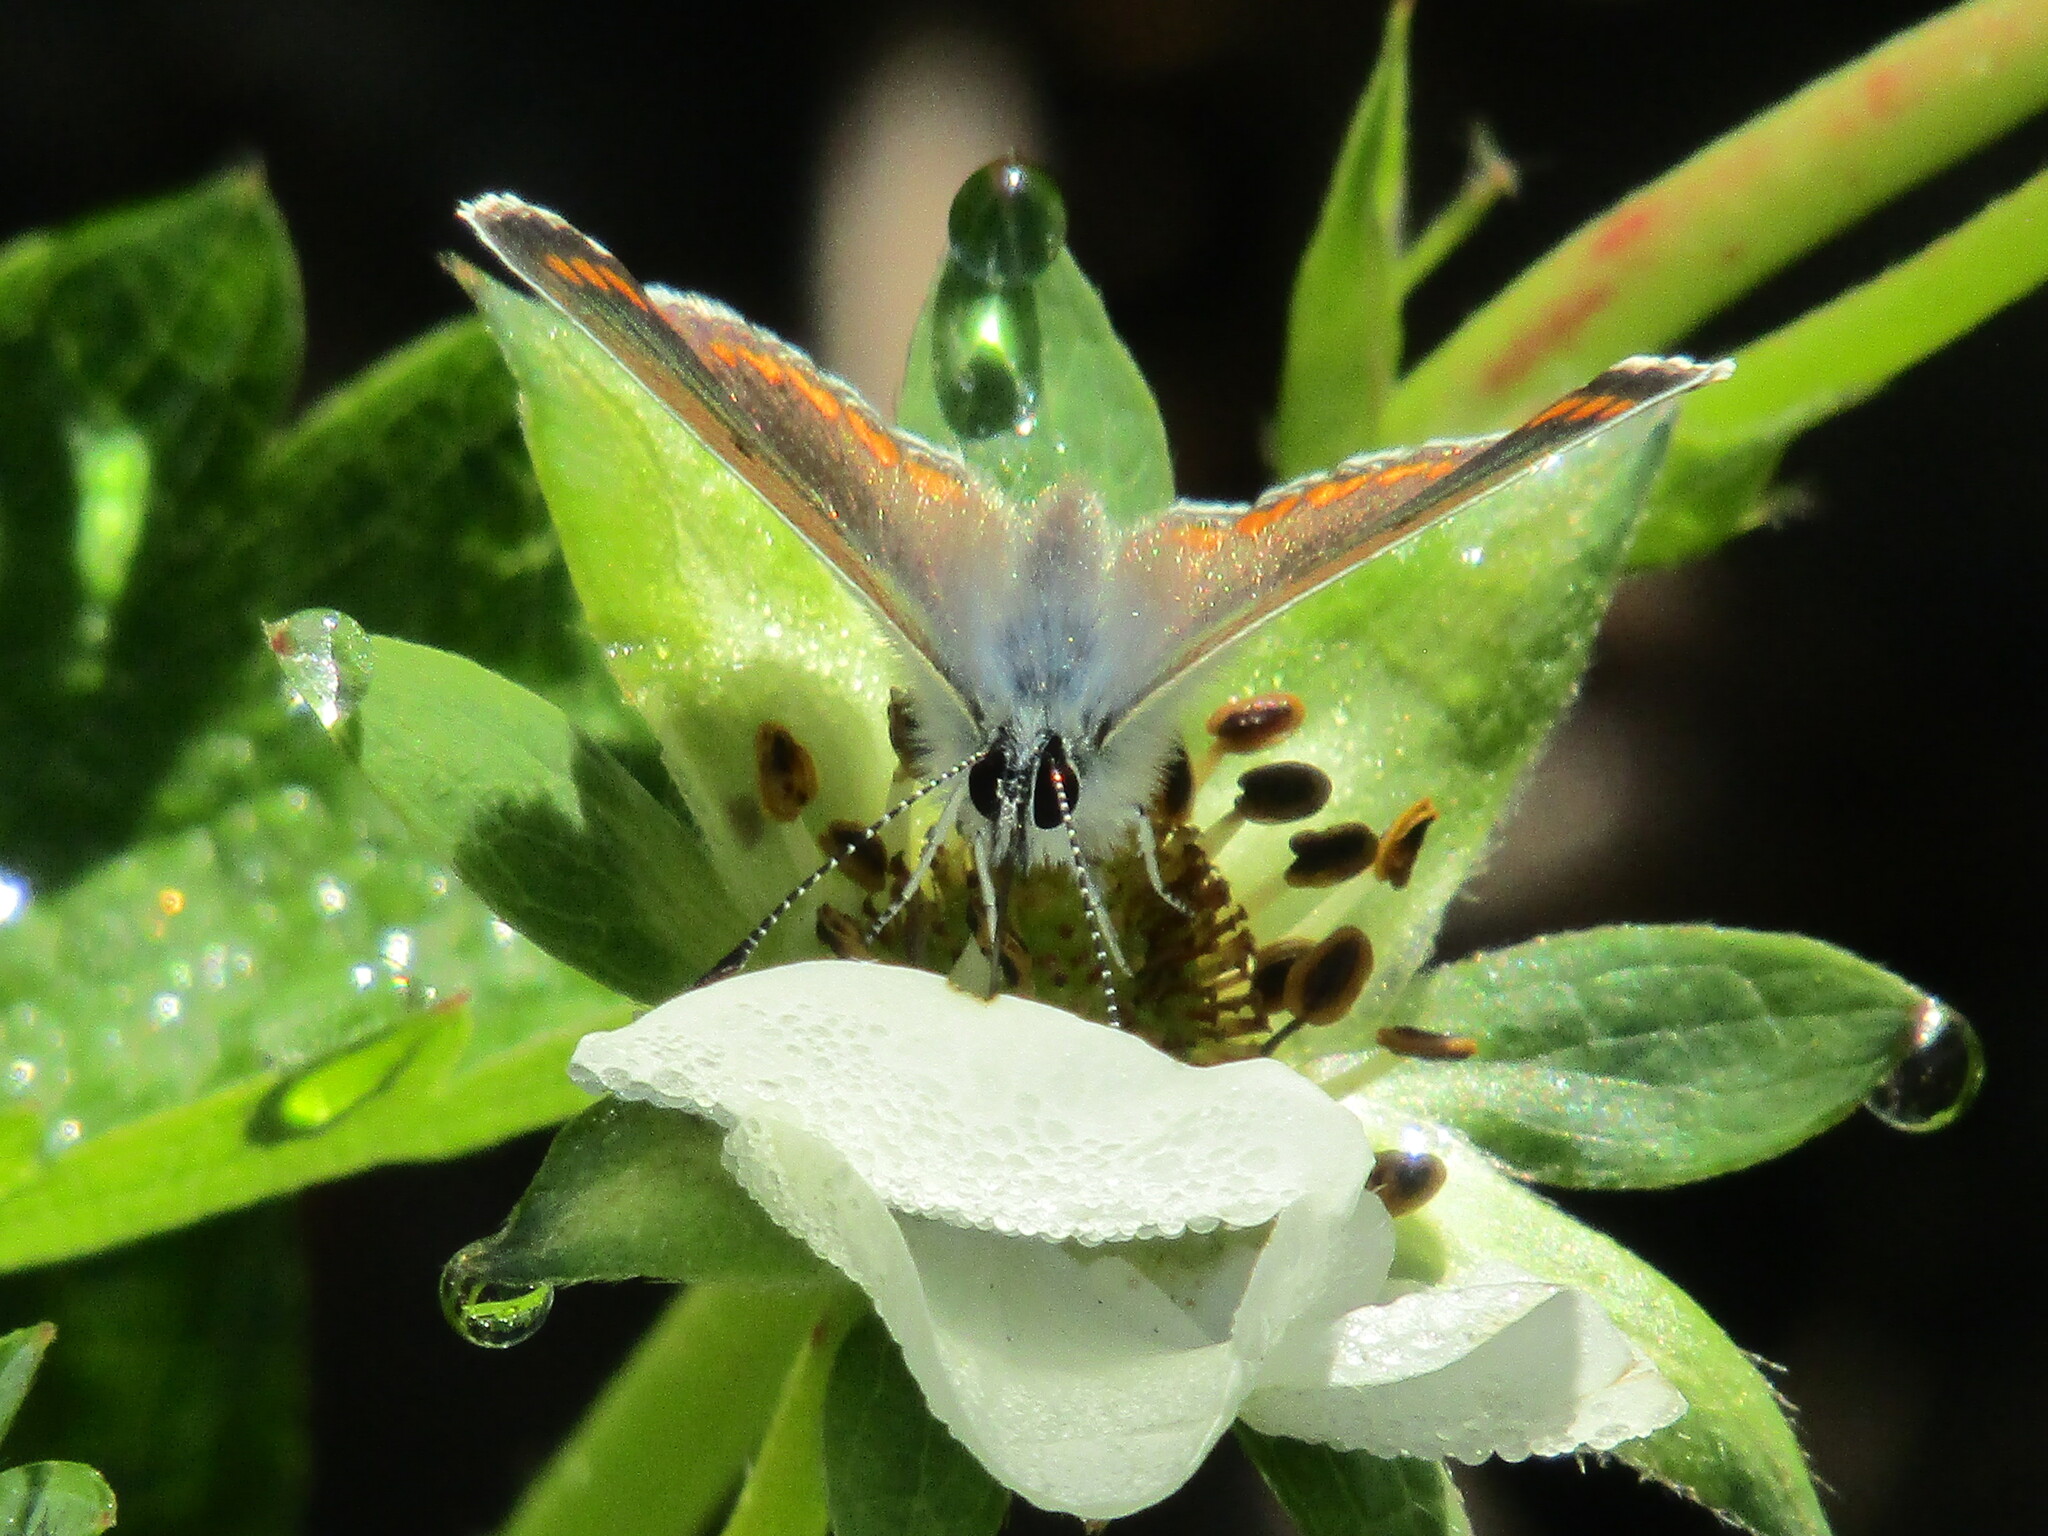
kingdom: Animalia
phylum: Arthropoda
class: Insecta
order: Lepidoptera
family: Lycaenidae
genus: Aricia
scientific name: Aricia agestis
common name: Brown argus
